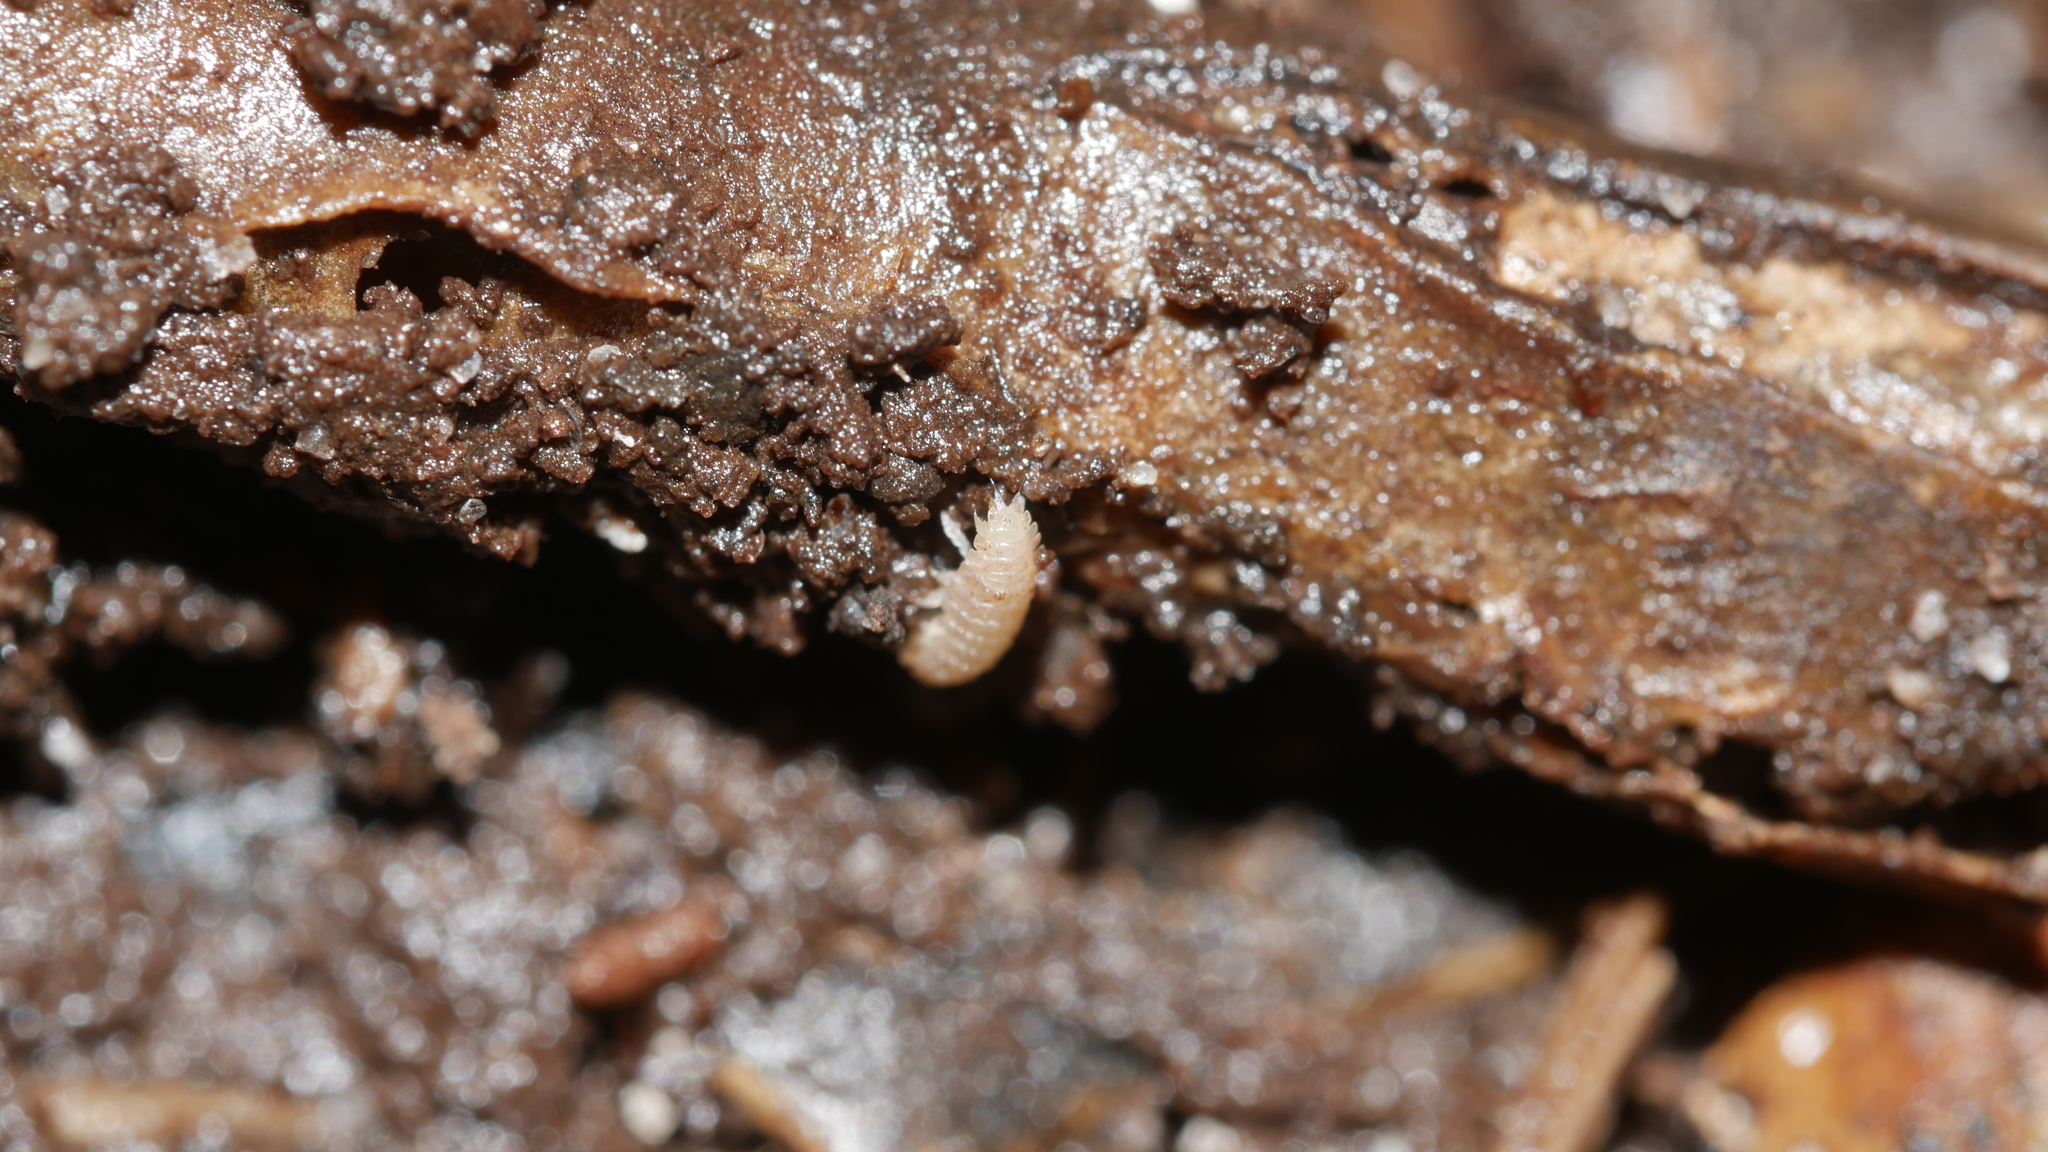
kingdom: Animalia
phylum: Arthropoda
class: Malacostraca
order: Isopoda
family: Trichoniscidae
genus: Haplophthalmus
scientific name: Haplophthalmus danicus
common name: Pillbug
